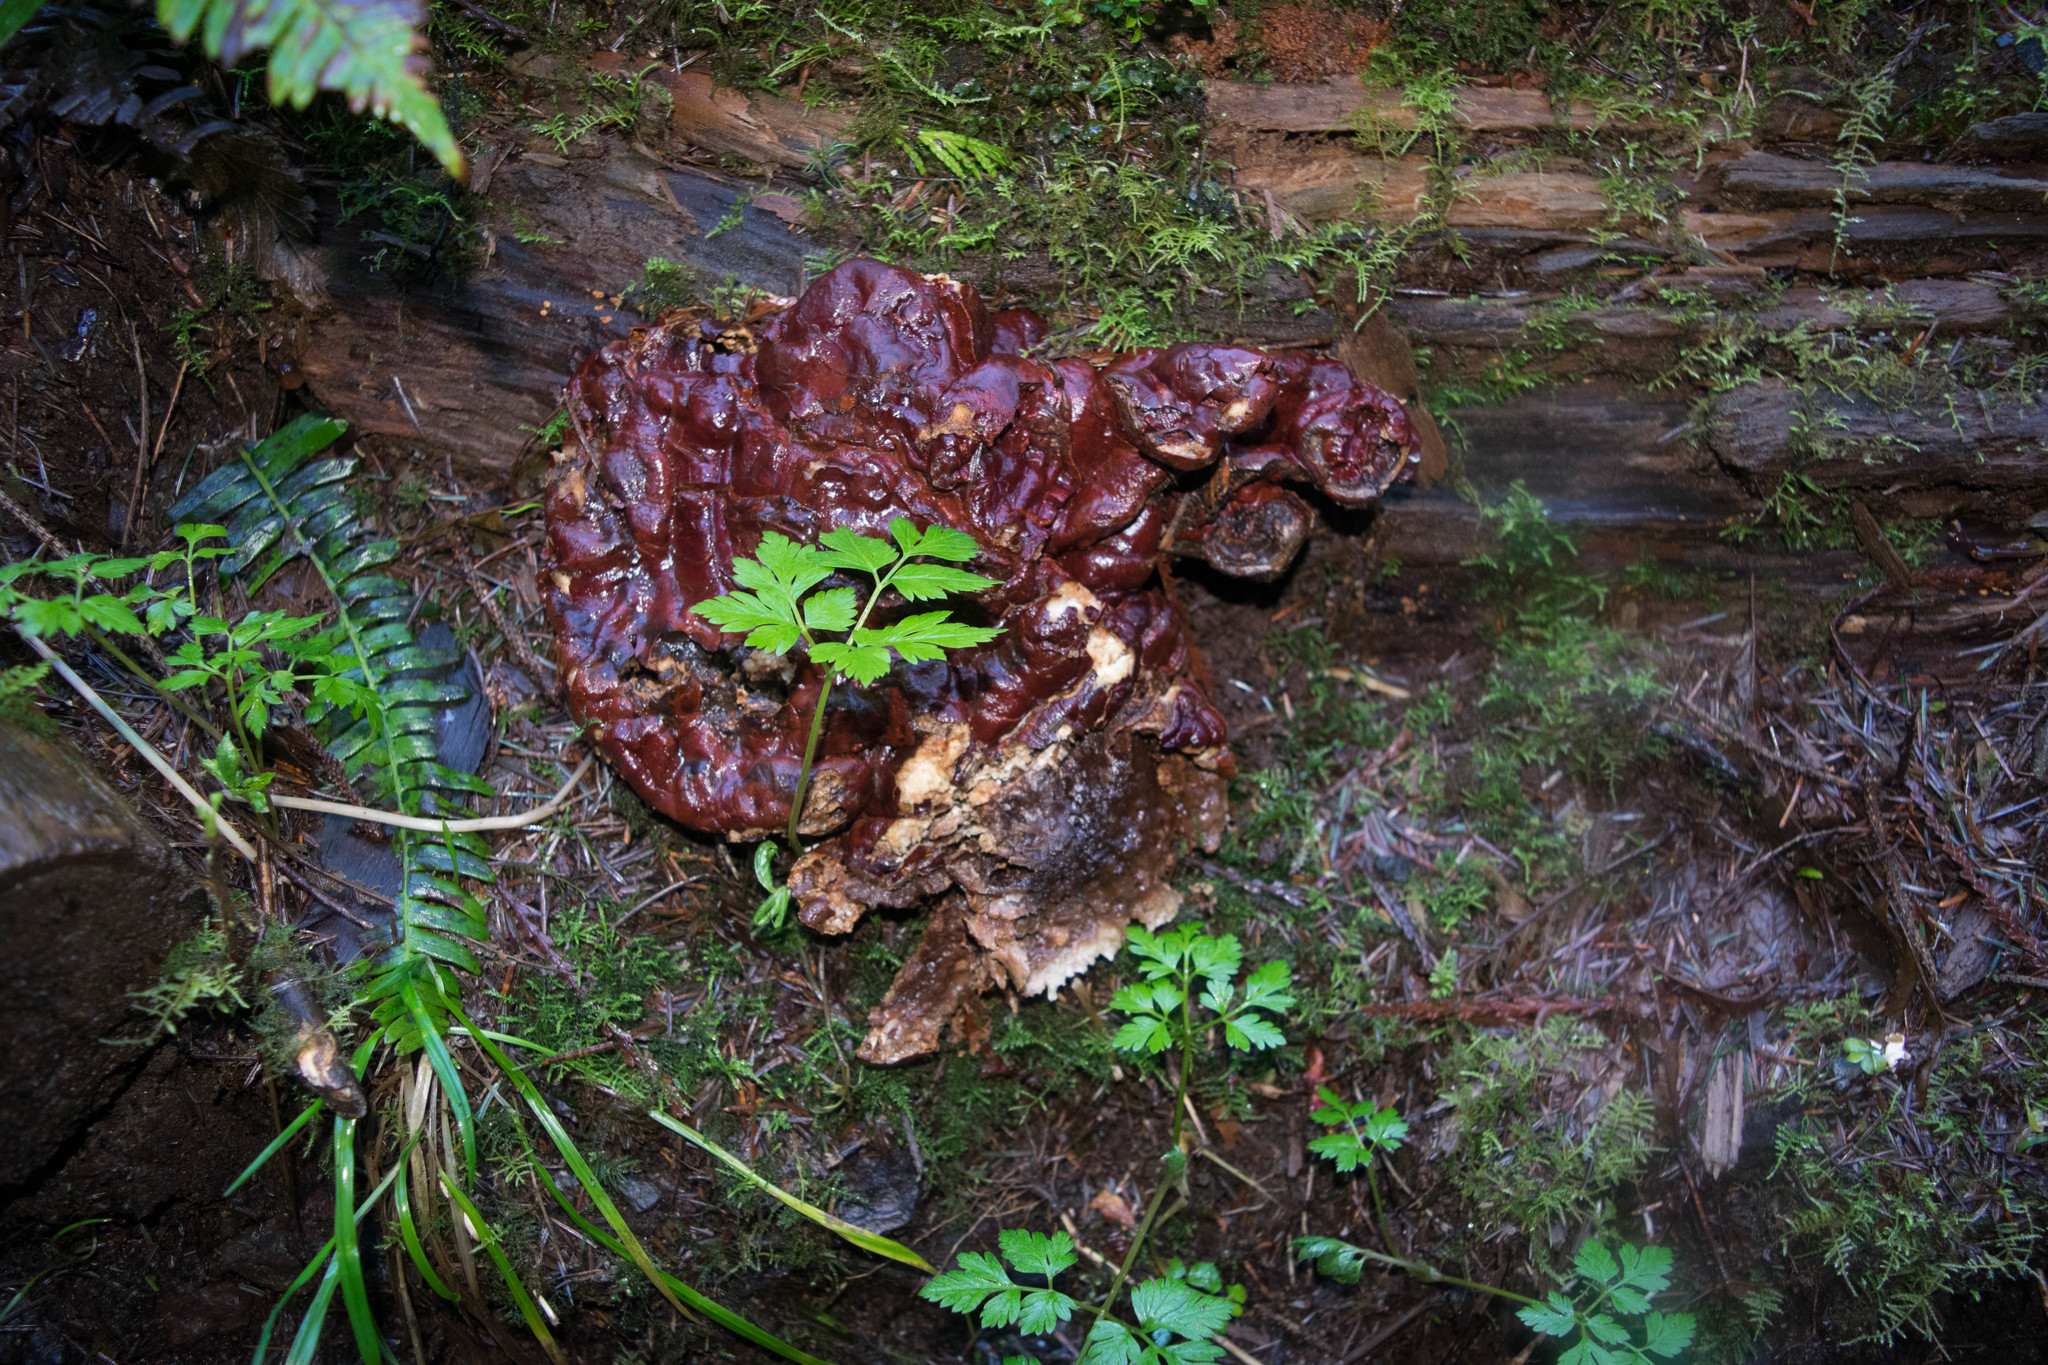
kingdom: Fungi
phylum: Basidiomycota
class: Agaricomycetes
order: Polyporales
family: Polyporaceae
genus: Ganoderma
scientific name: Ganoderma oregonense
